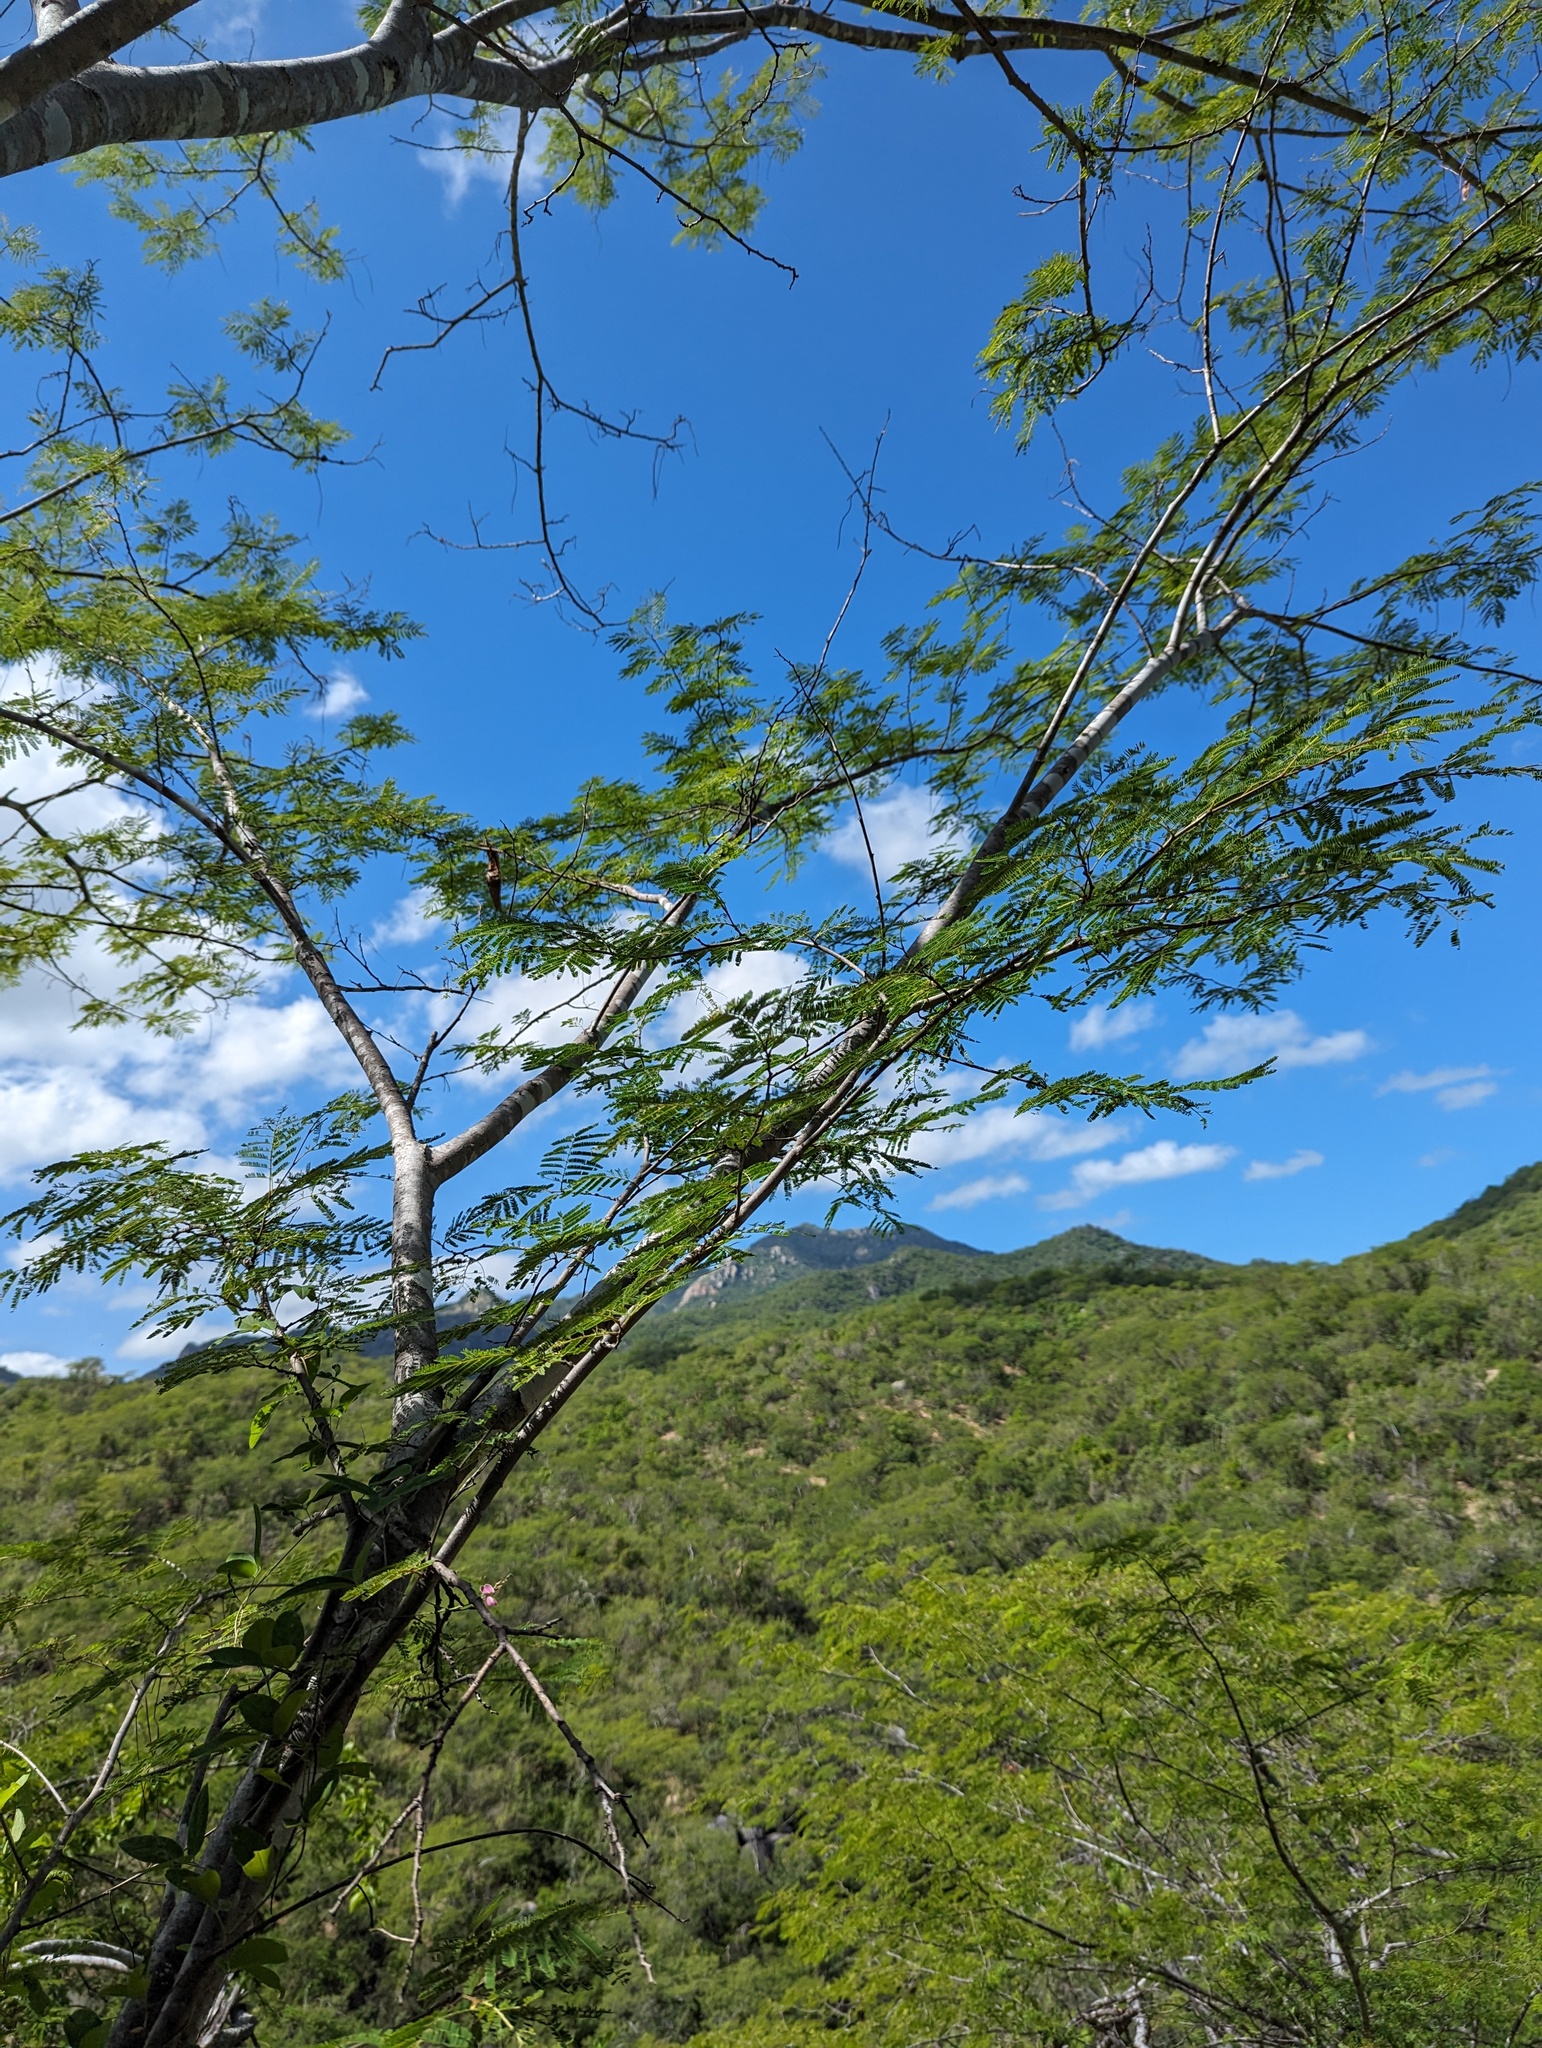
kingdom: Plantae
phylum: Tracheophyta
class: Magnoliopsida
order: Fabales
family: Fabaceae
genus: Lysiloma
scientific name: Lysiloma divaricatum
